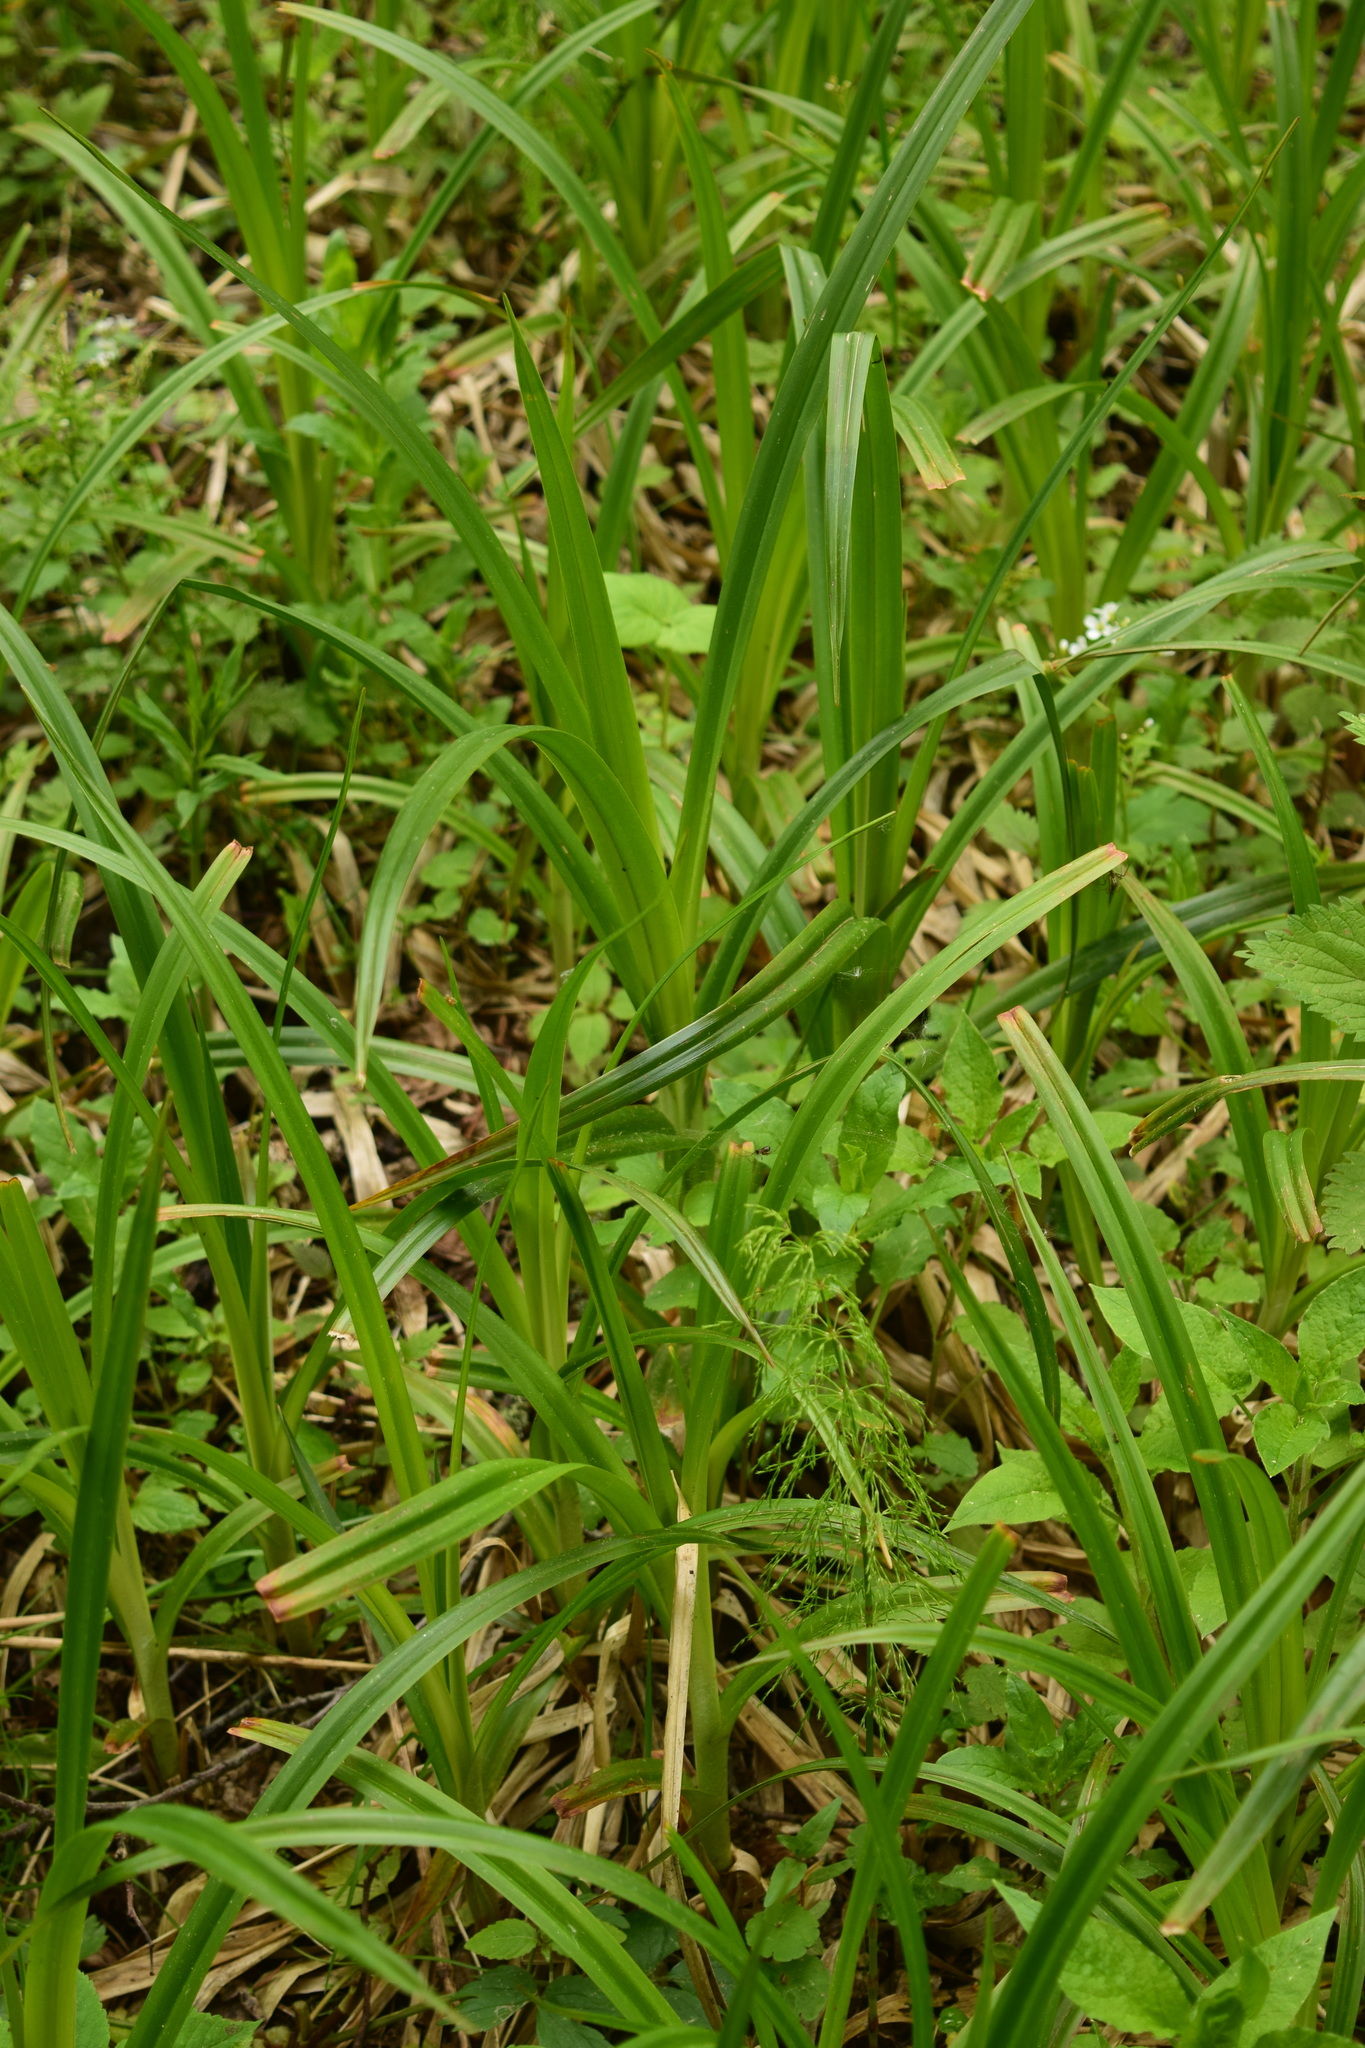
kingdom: Plantae
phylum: Tracheophyta
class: Liliopsida
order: Poales
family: Cyperaceae
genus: Scirpus
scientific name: Scirpus sylvaticus
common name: Wood club-rush
